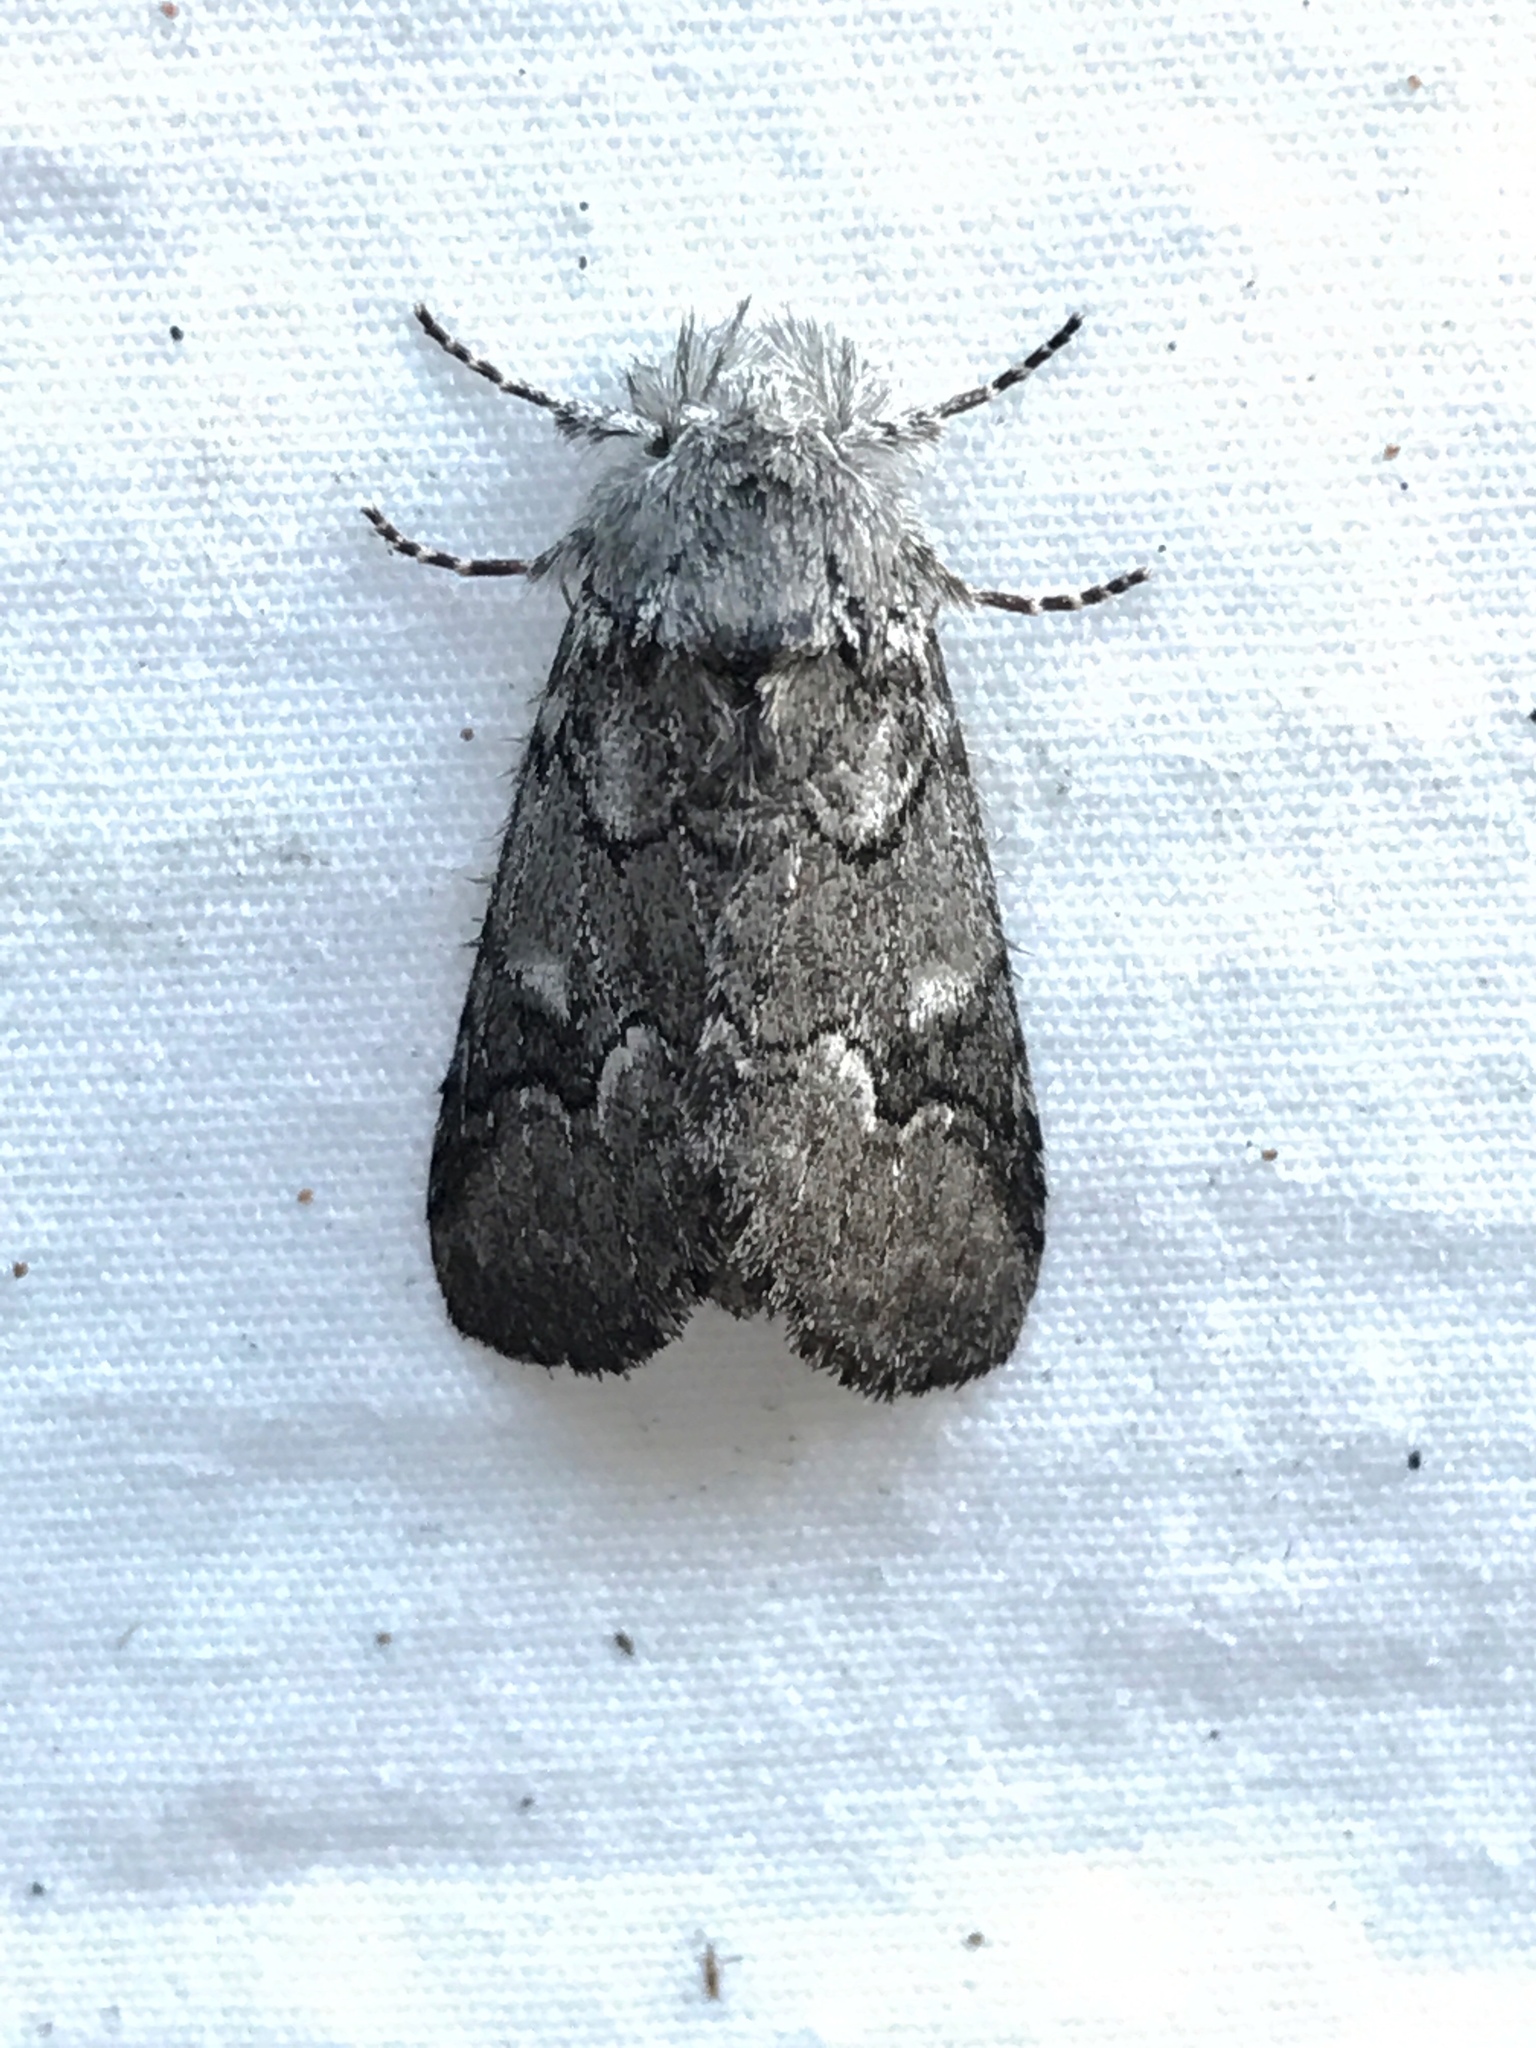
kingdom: Animalia
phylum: Arthropoda
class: Insecta
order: Lepidoptera
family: Notodontidae
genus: Lochmaeus
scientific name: Lochmaeus bilineata
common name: Double-lined prominent
